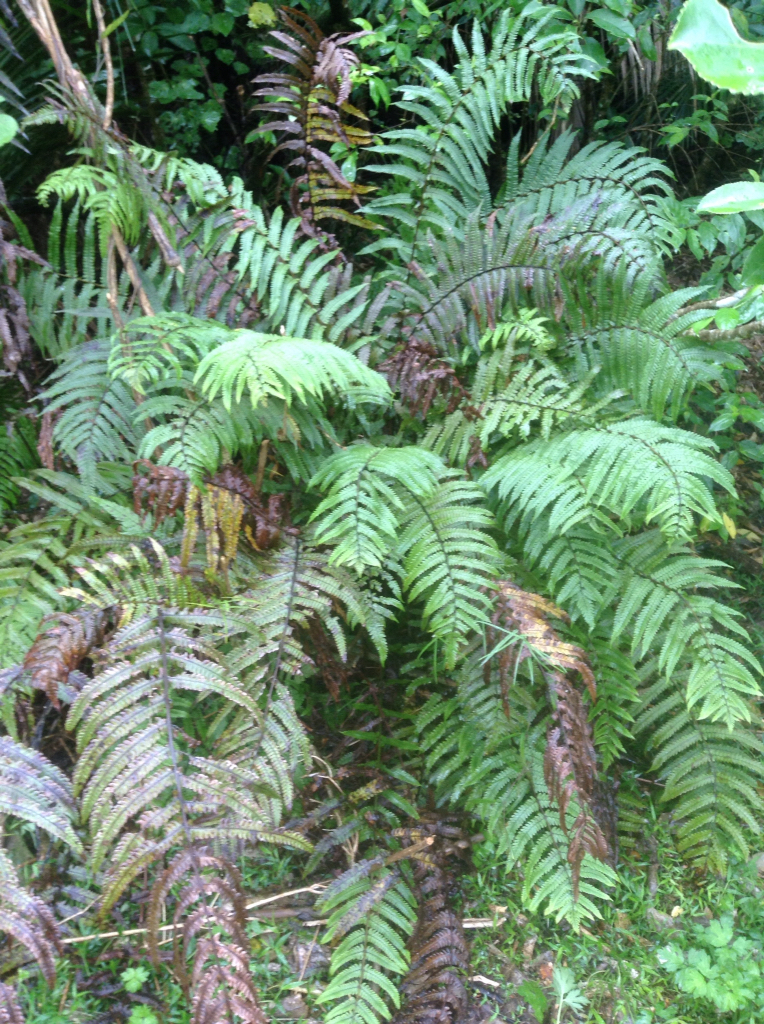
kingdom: Plantae
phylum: Tracheophyta
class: Polypodiopsida
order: Polypodiales
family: Thelypteridaceae
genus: Pakau
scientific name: Pakau pennigera
